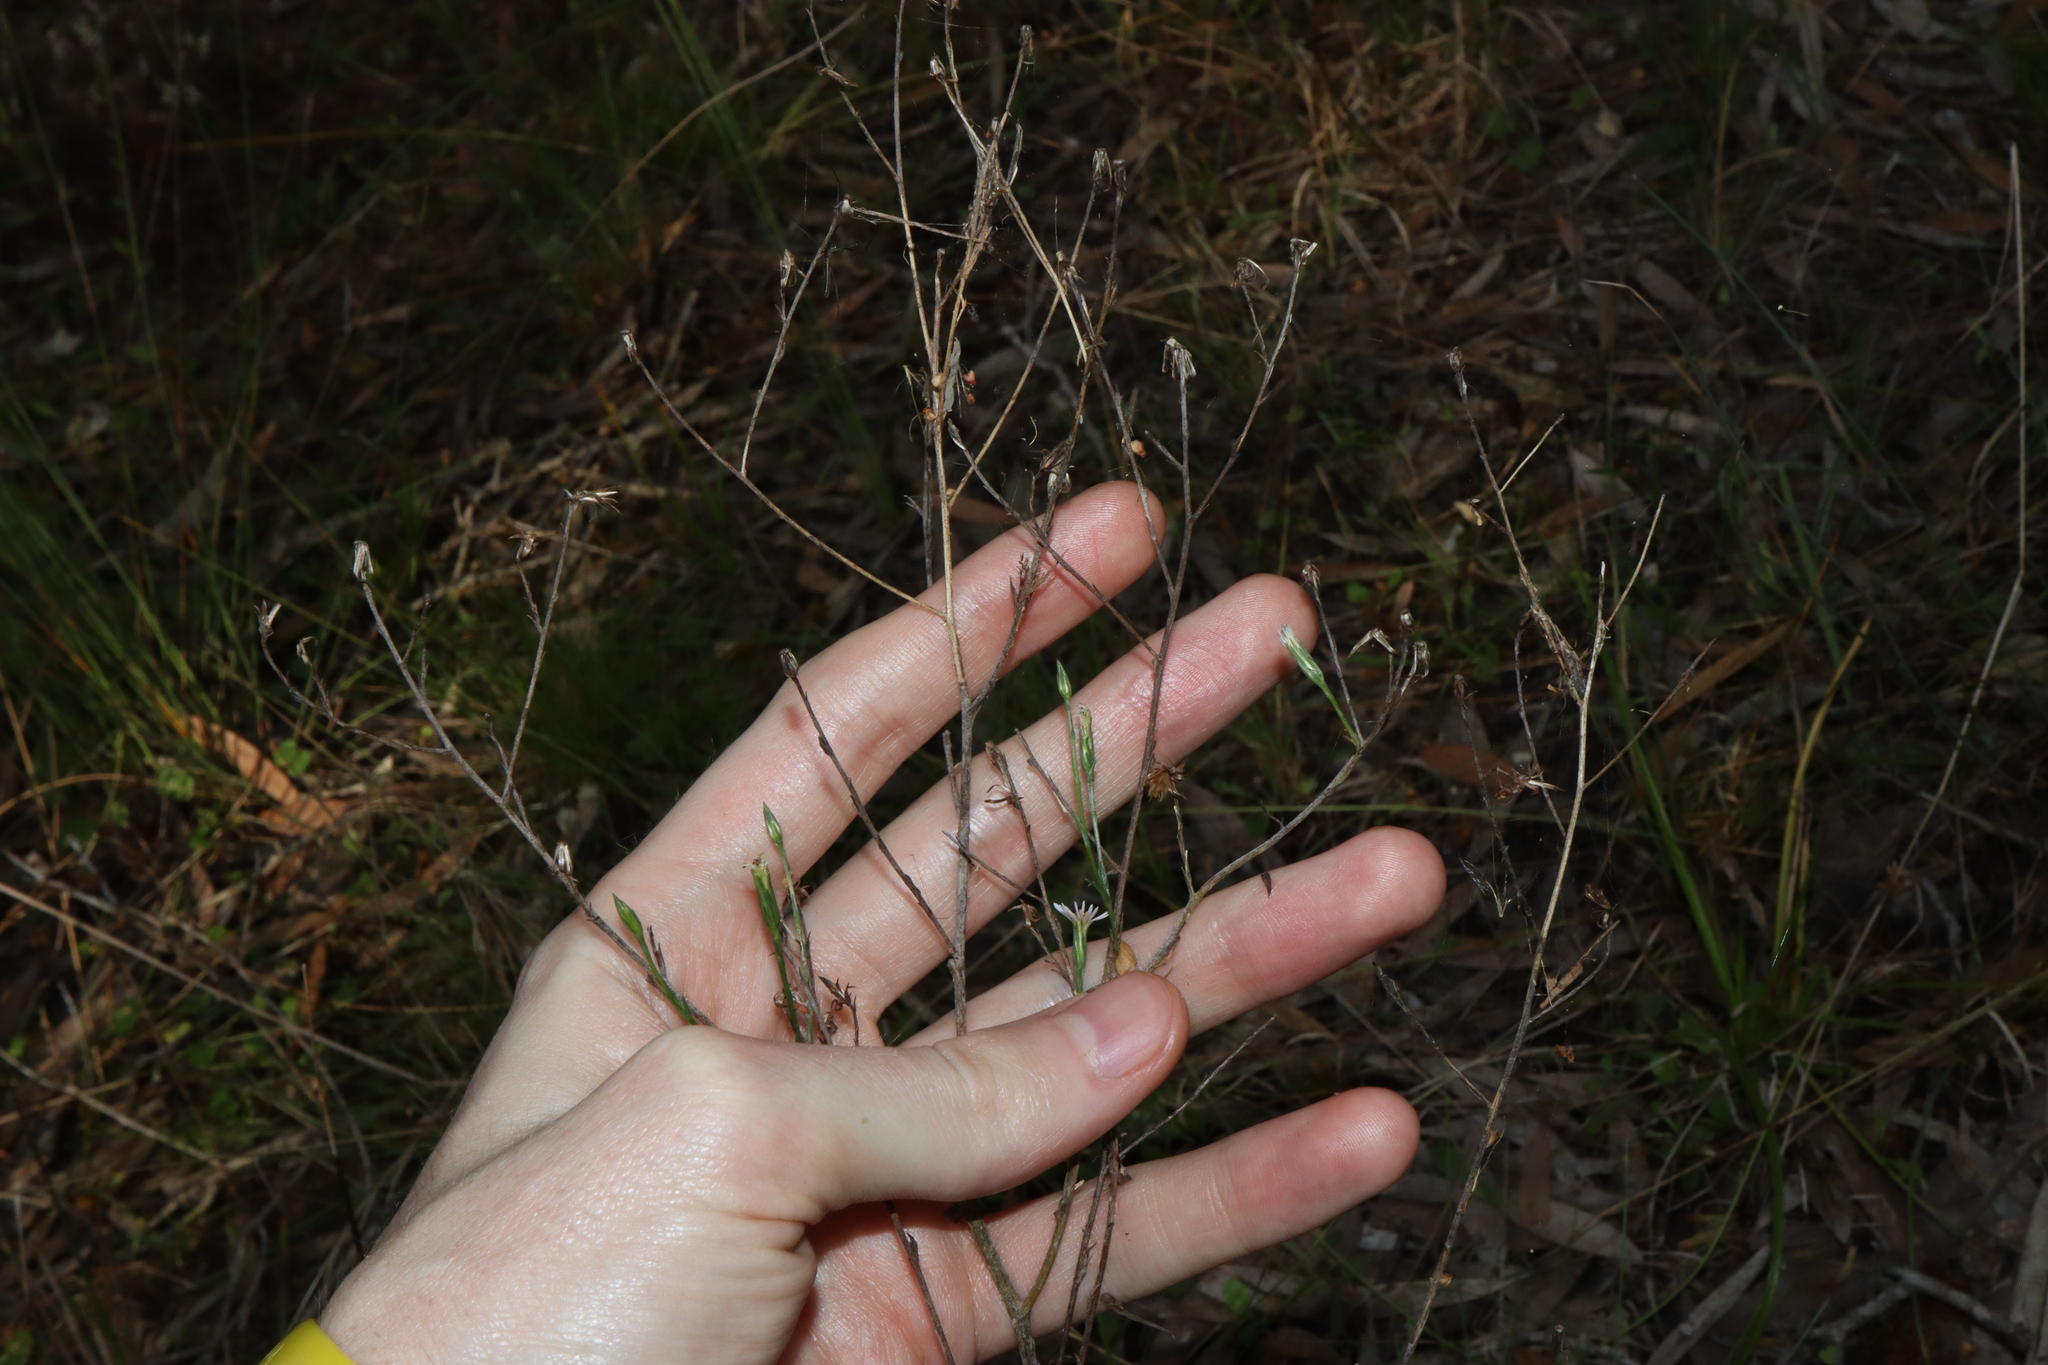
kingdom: Plantae
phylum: Tracheophyta
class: Magnoliopsida
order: Asterales
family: Asteraceae
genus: Symphyotrichum
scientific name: Symphyotrichum subulatum
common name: Annual saltmarsh aster
